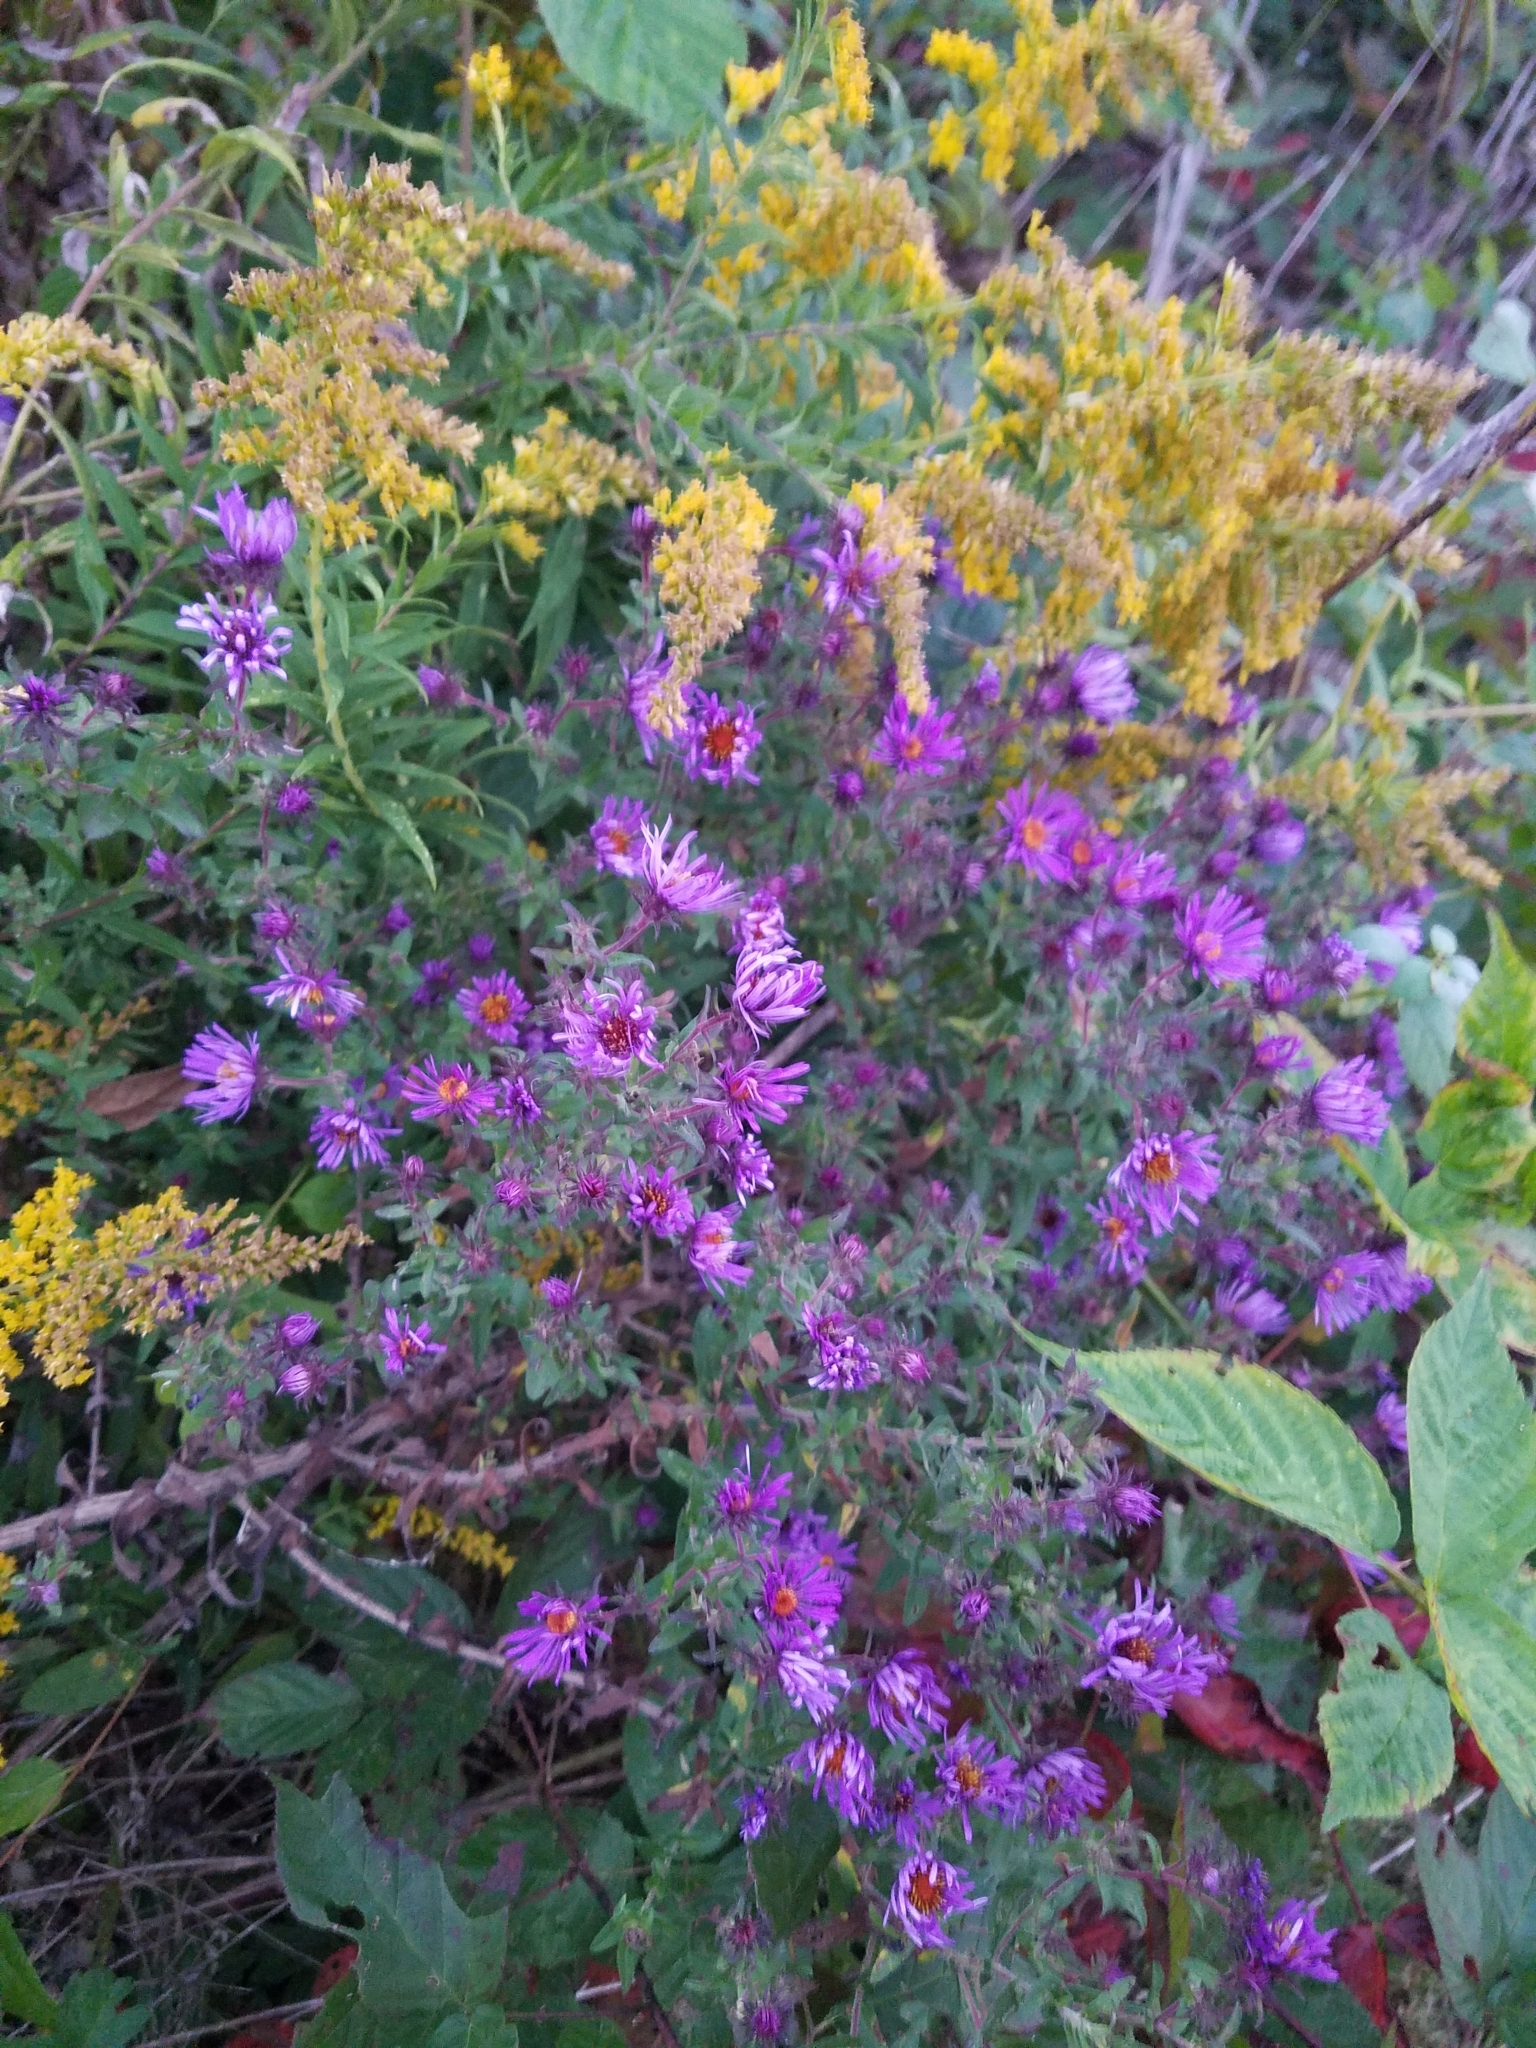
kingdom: Plantae
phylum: Tracheophyta
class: Magnoliopsida
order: Asterales
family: Asteraceae
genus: Symphyotrichum
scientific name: Symphyotrichum novae-angliae
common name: Michaelmas daisy
